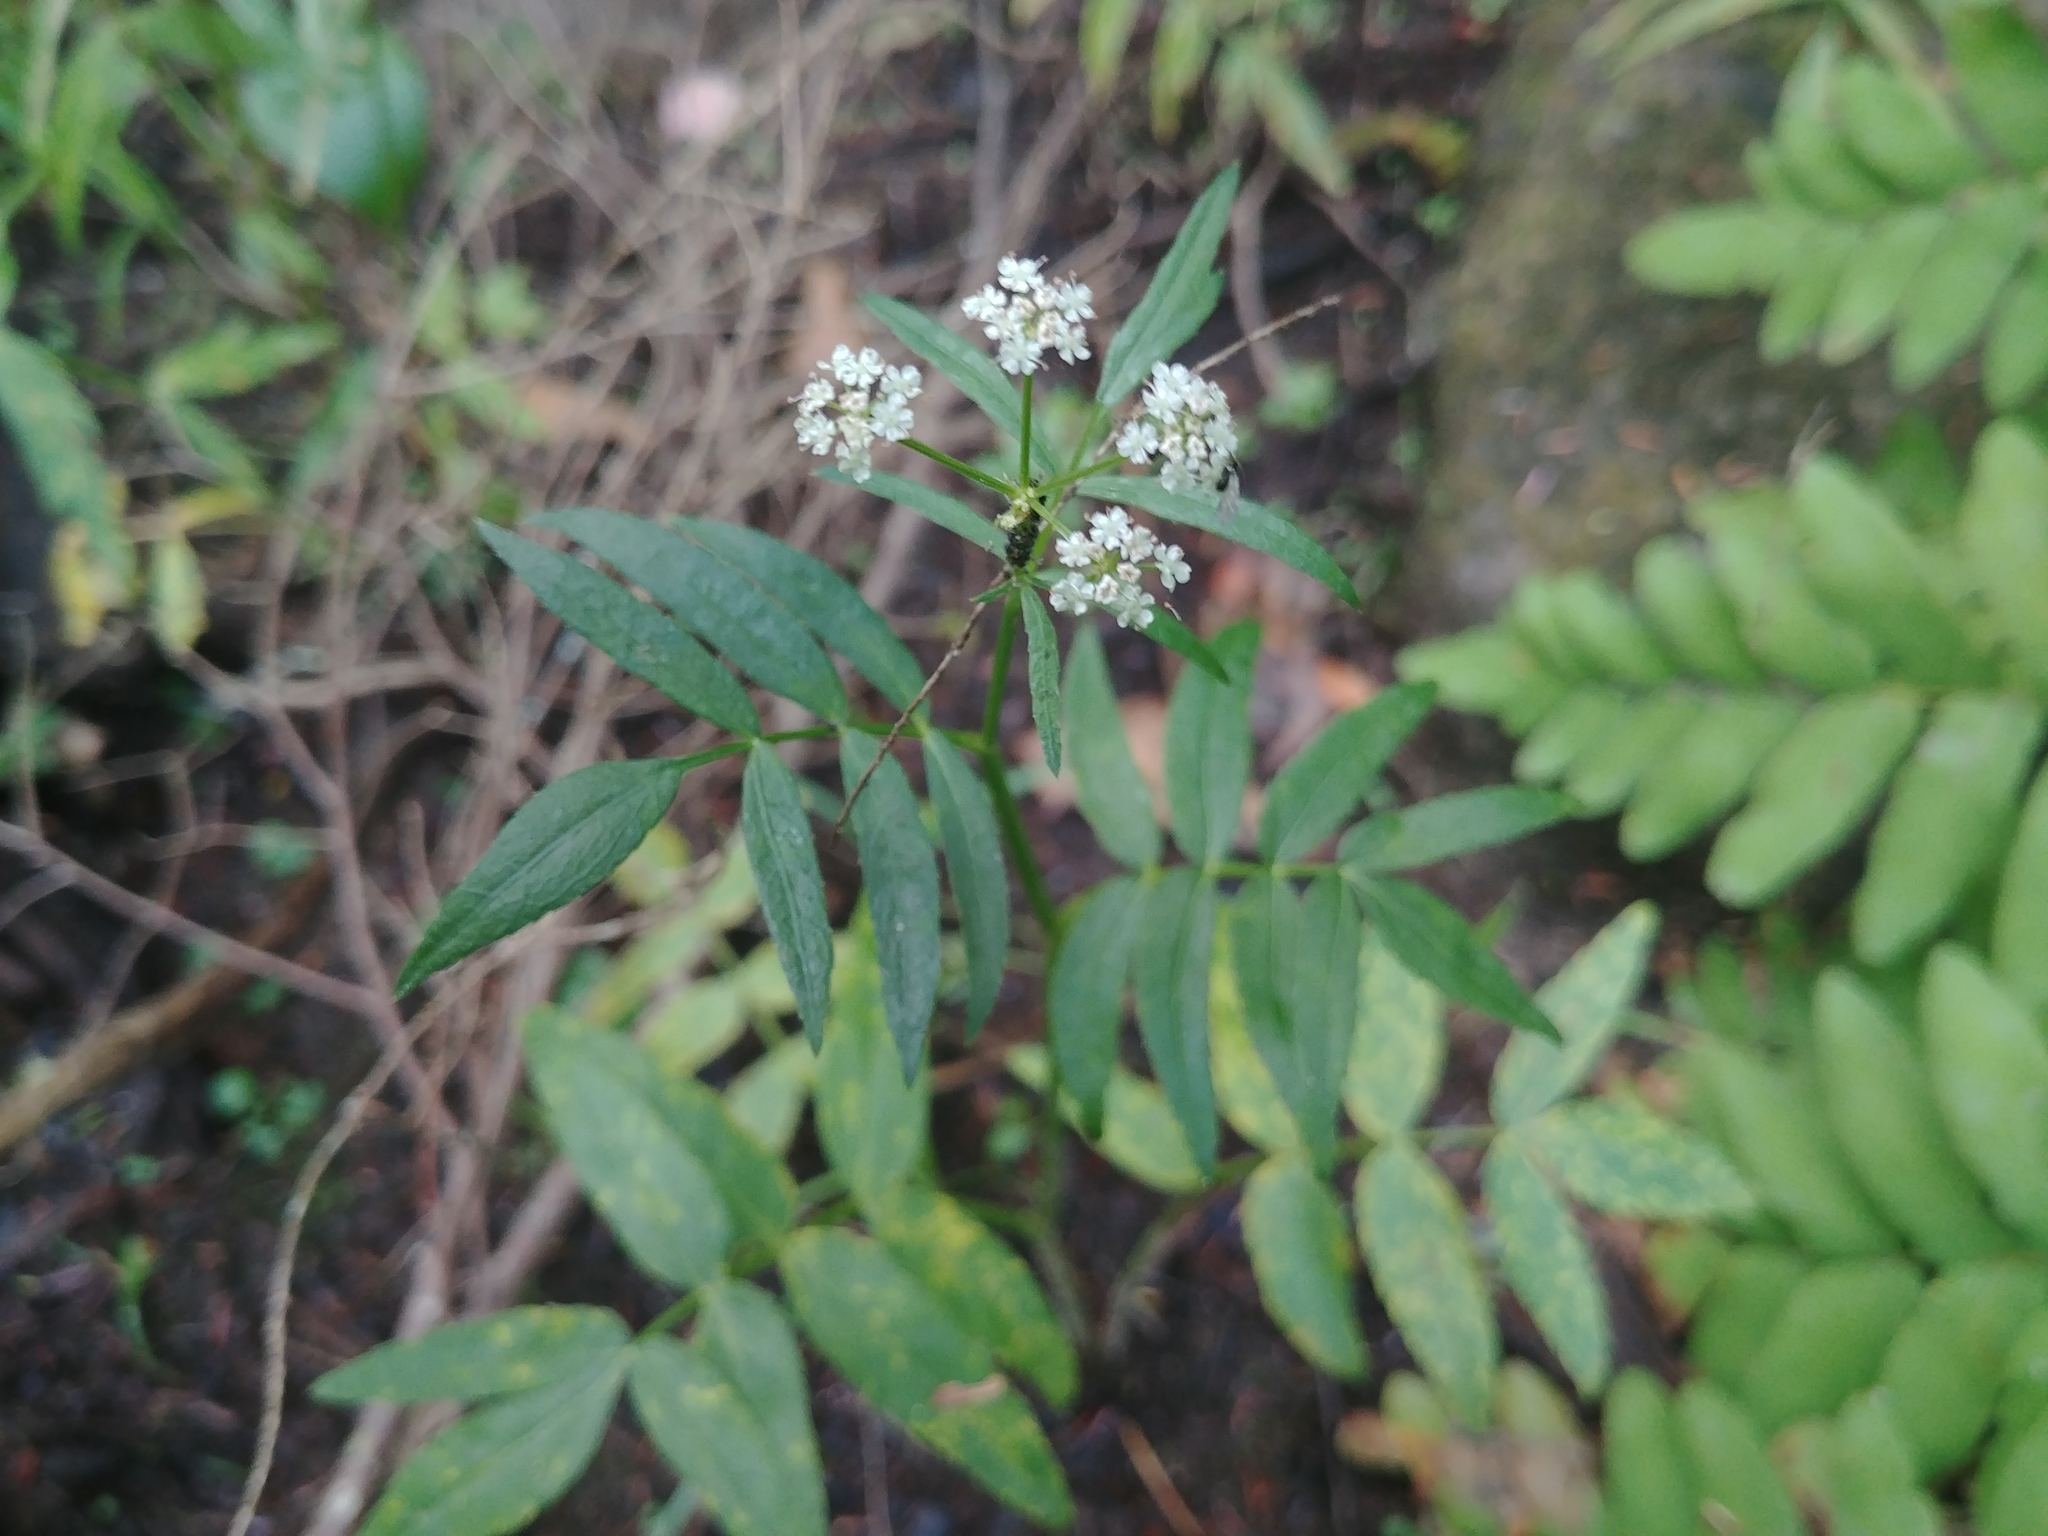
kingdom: Plantae
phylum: Tracheophyta
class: Magnoliopsida
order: Apiales
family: Apiaceae
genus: Sium
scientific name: Sium suave
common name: Hemlock water-parsnip
